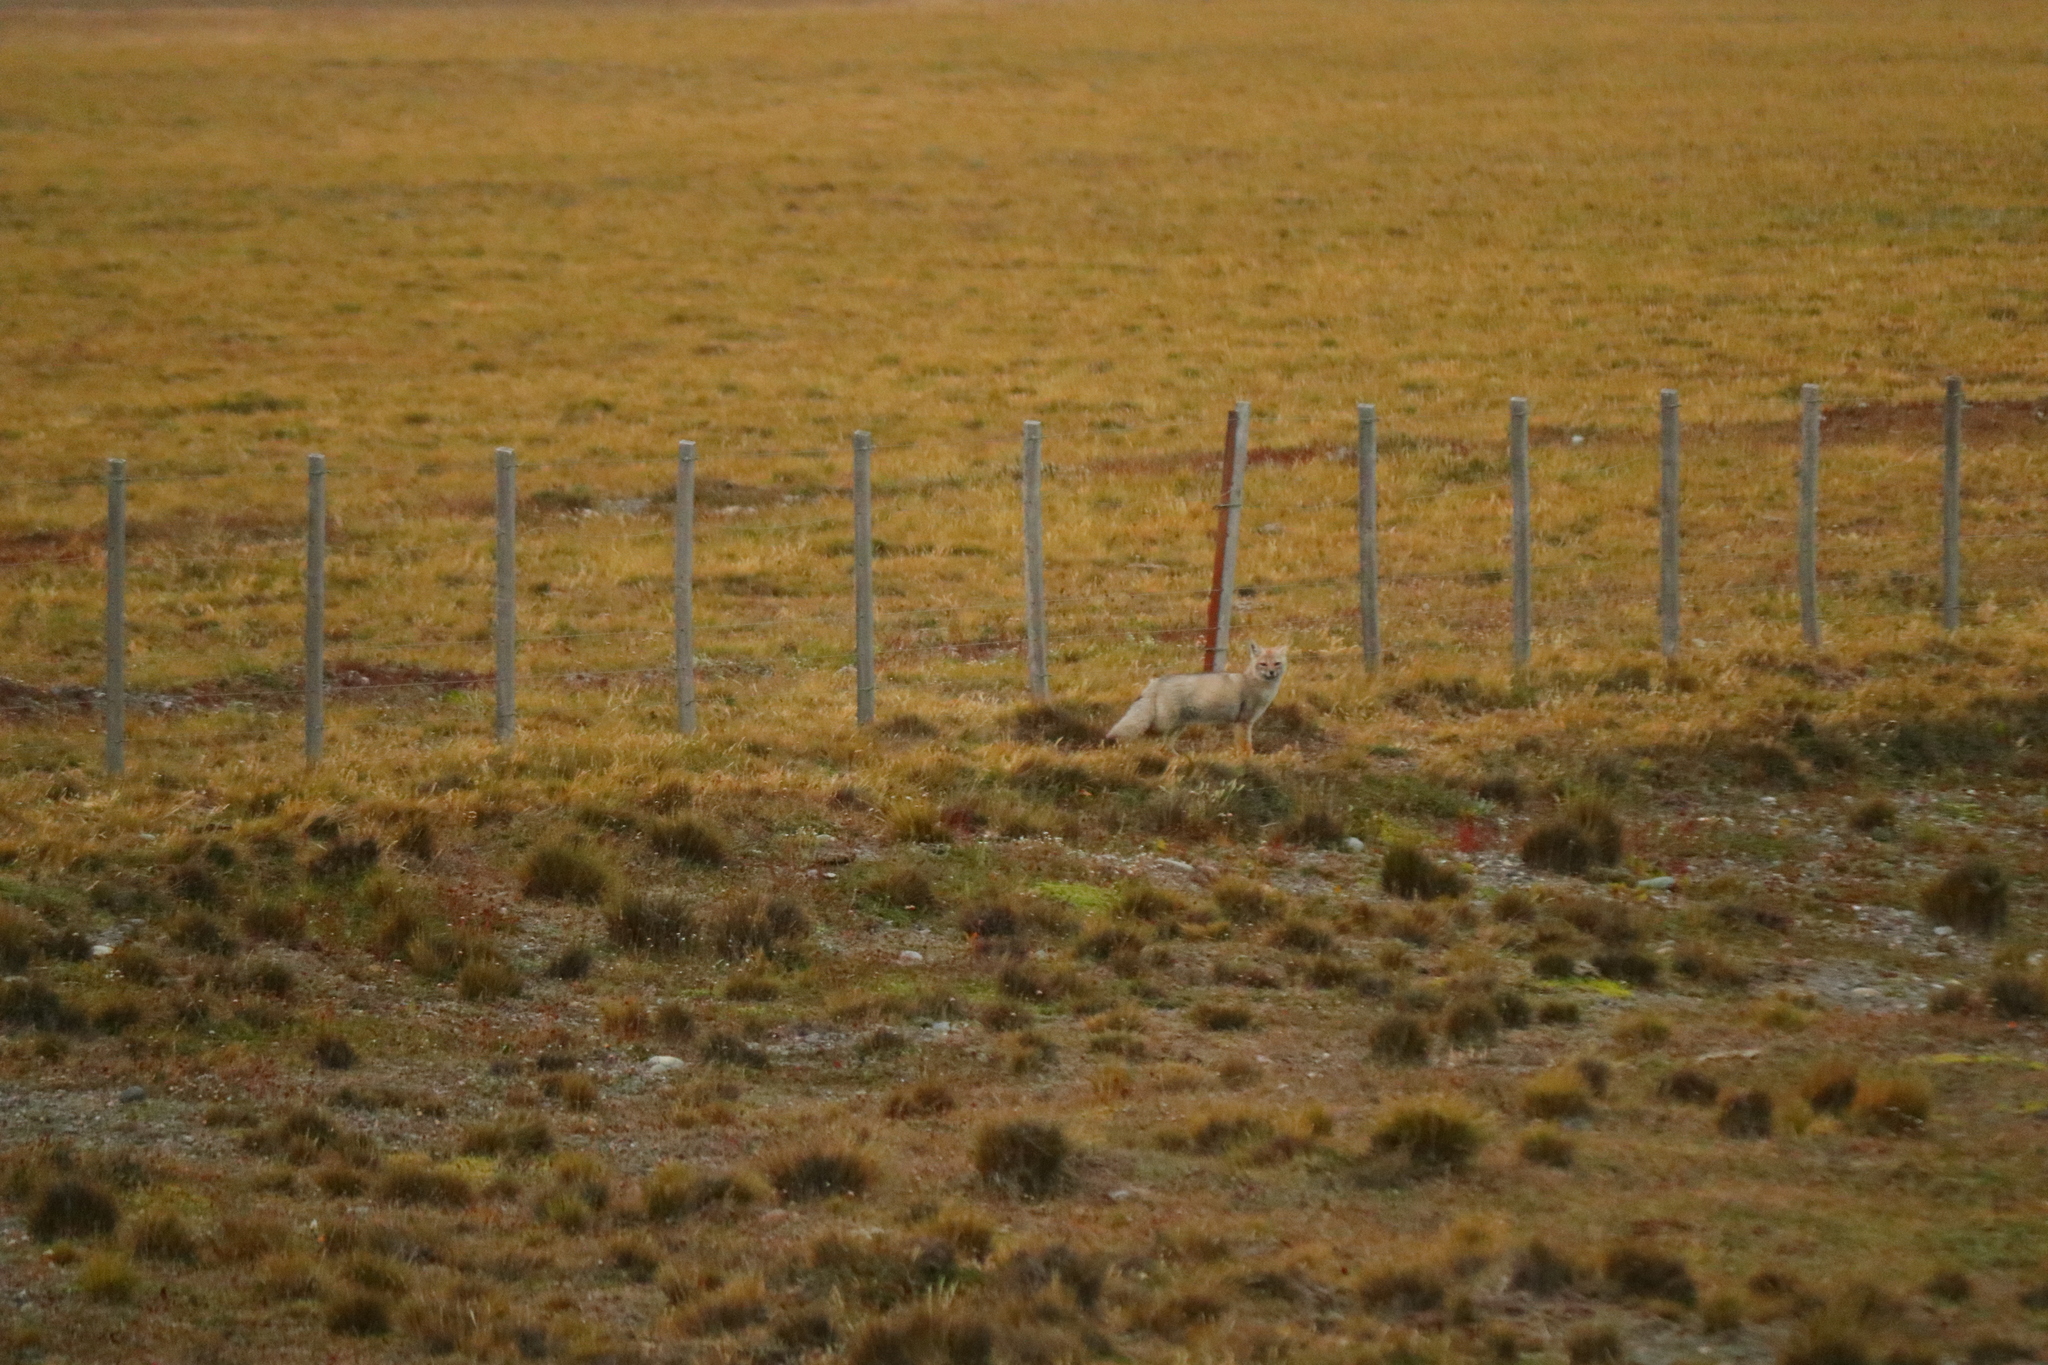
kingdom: Animalia
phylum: Chordata
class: Mammalia
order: Carnivora
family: Canidae
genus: Lycalopex
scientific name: Lycalopex gymnocercus
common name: Pampas fox
